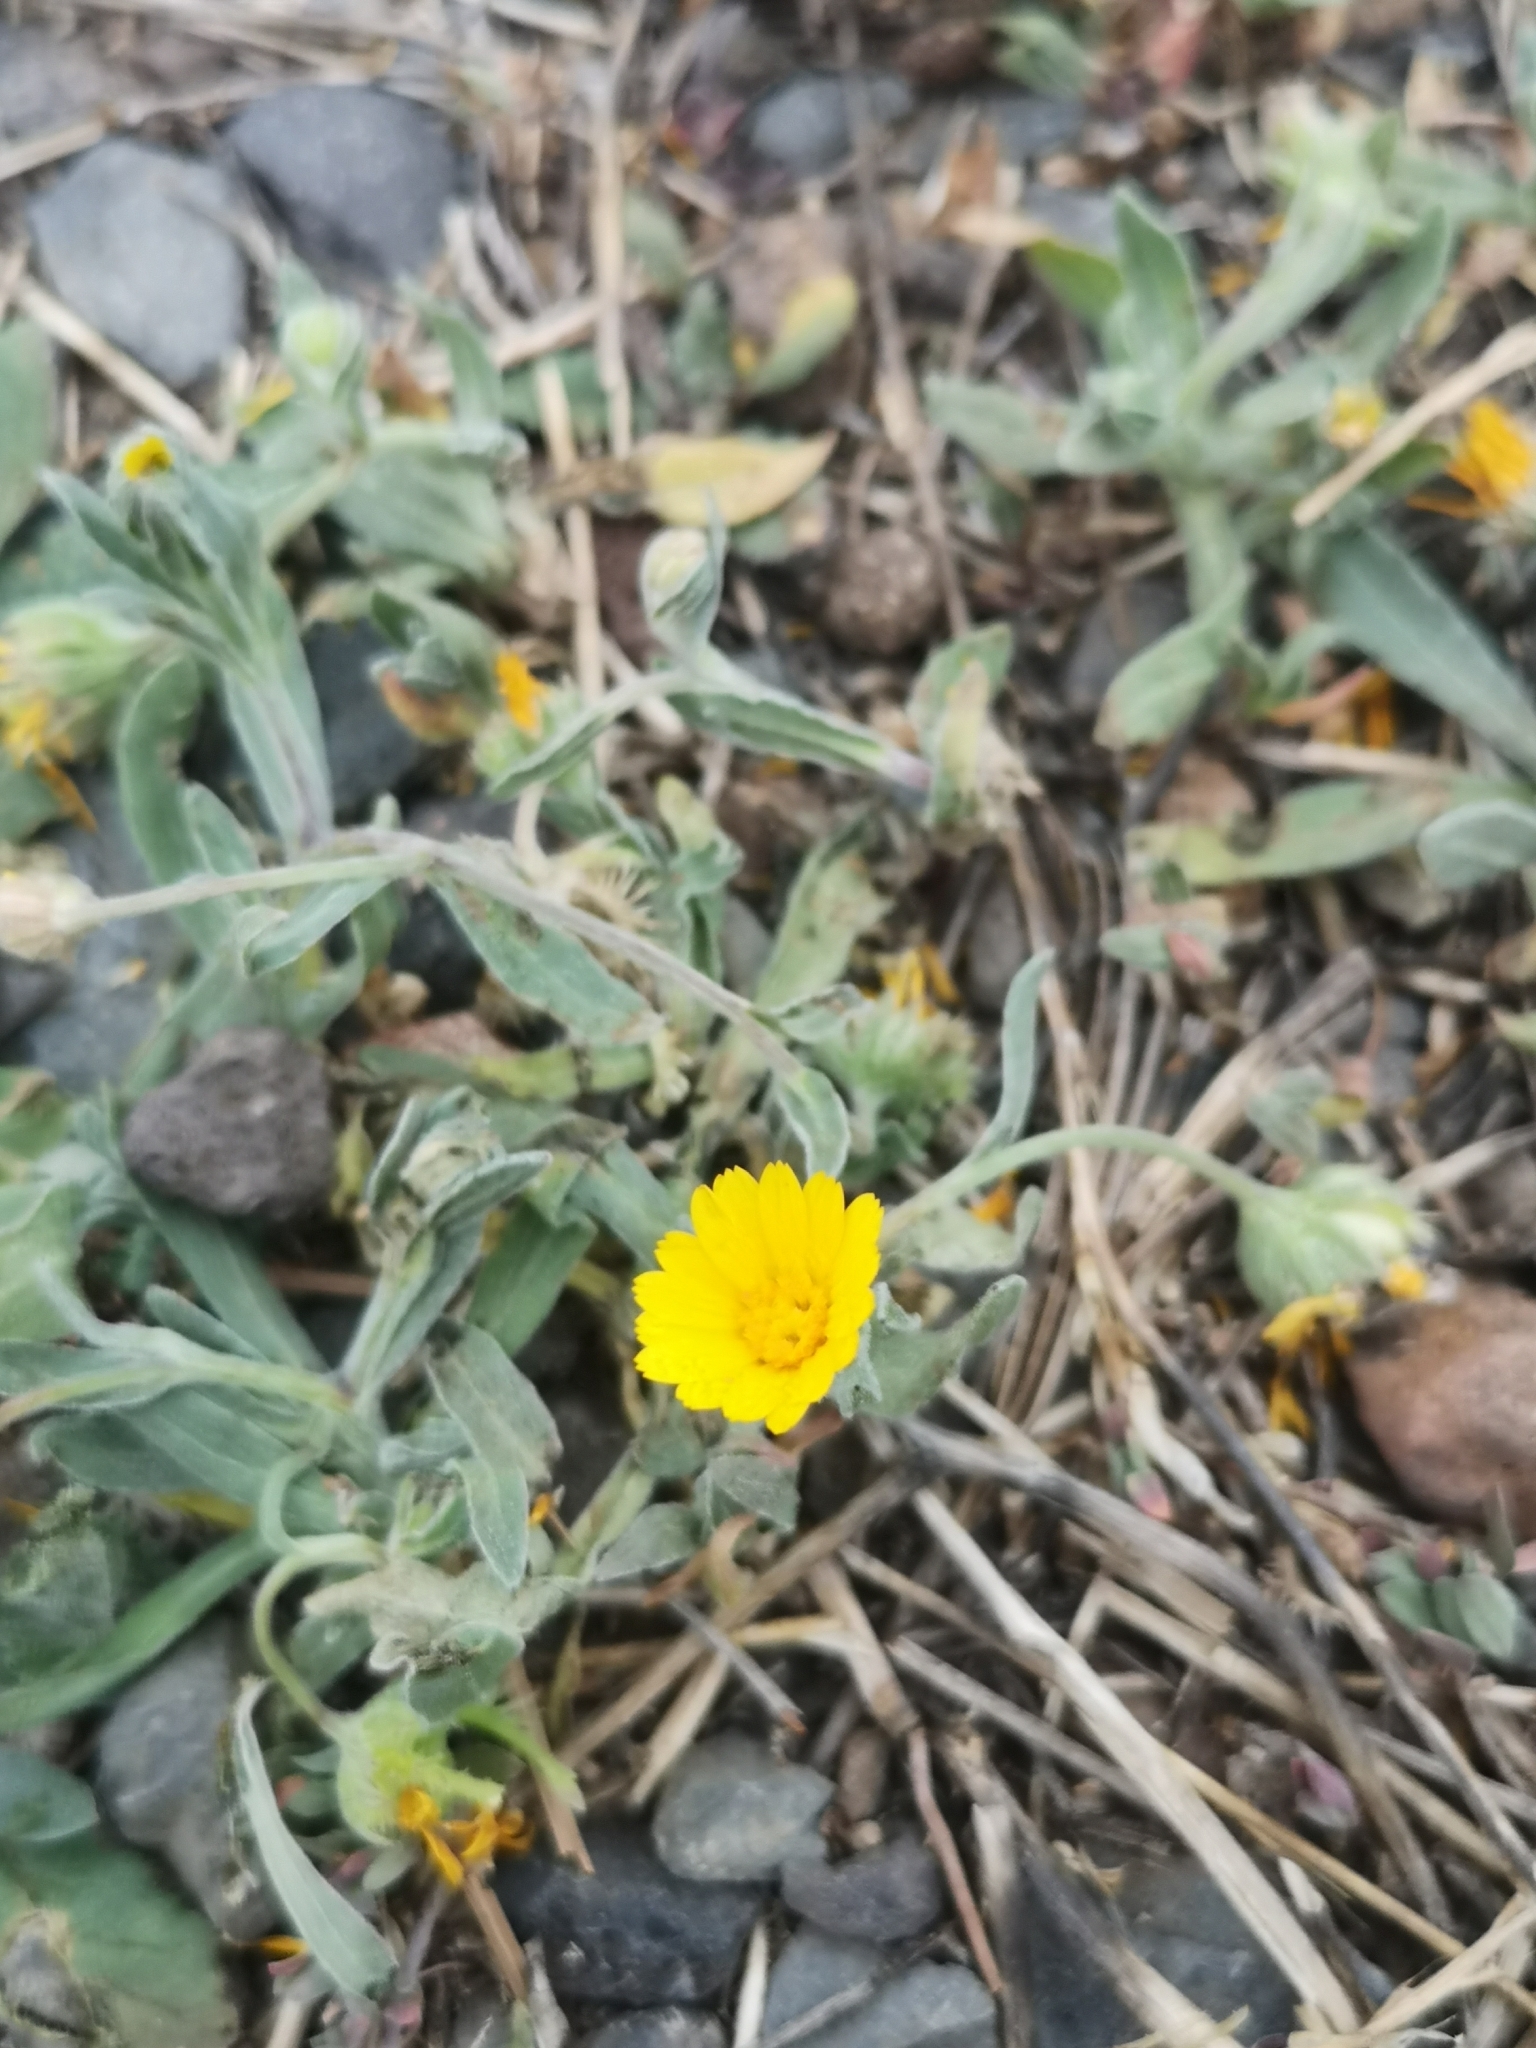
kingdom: Plantae
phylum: Tracheophyta
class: Magnoliopsida
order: Asterales
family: Asteraceae
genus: Calendula
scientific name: Calendula arvensis
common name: Field marigold
